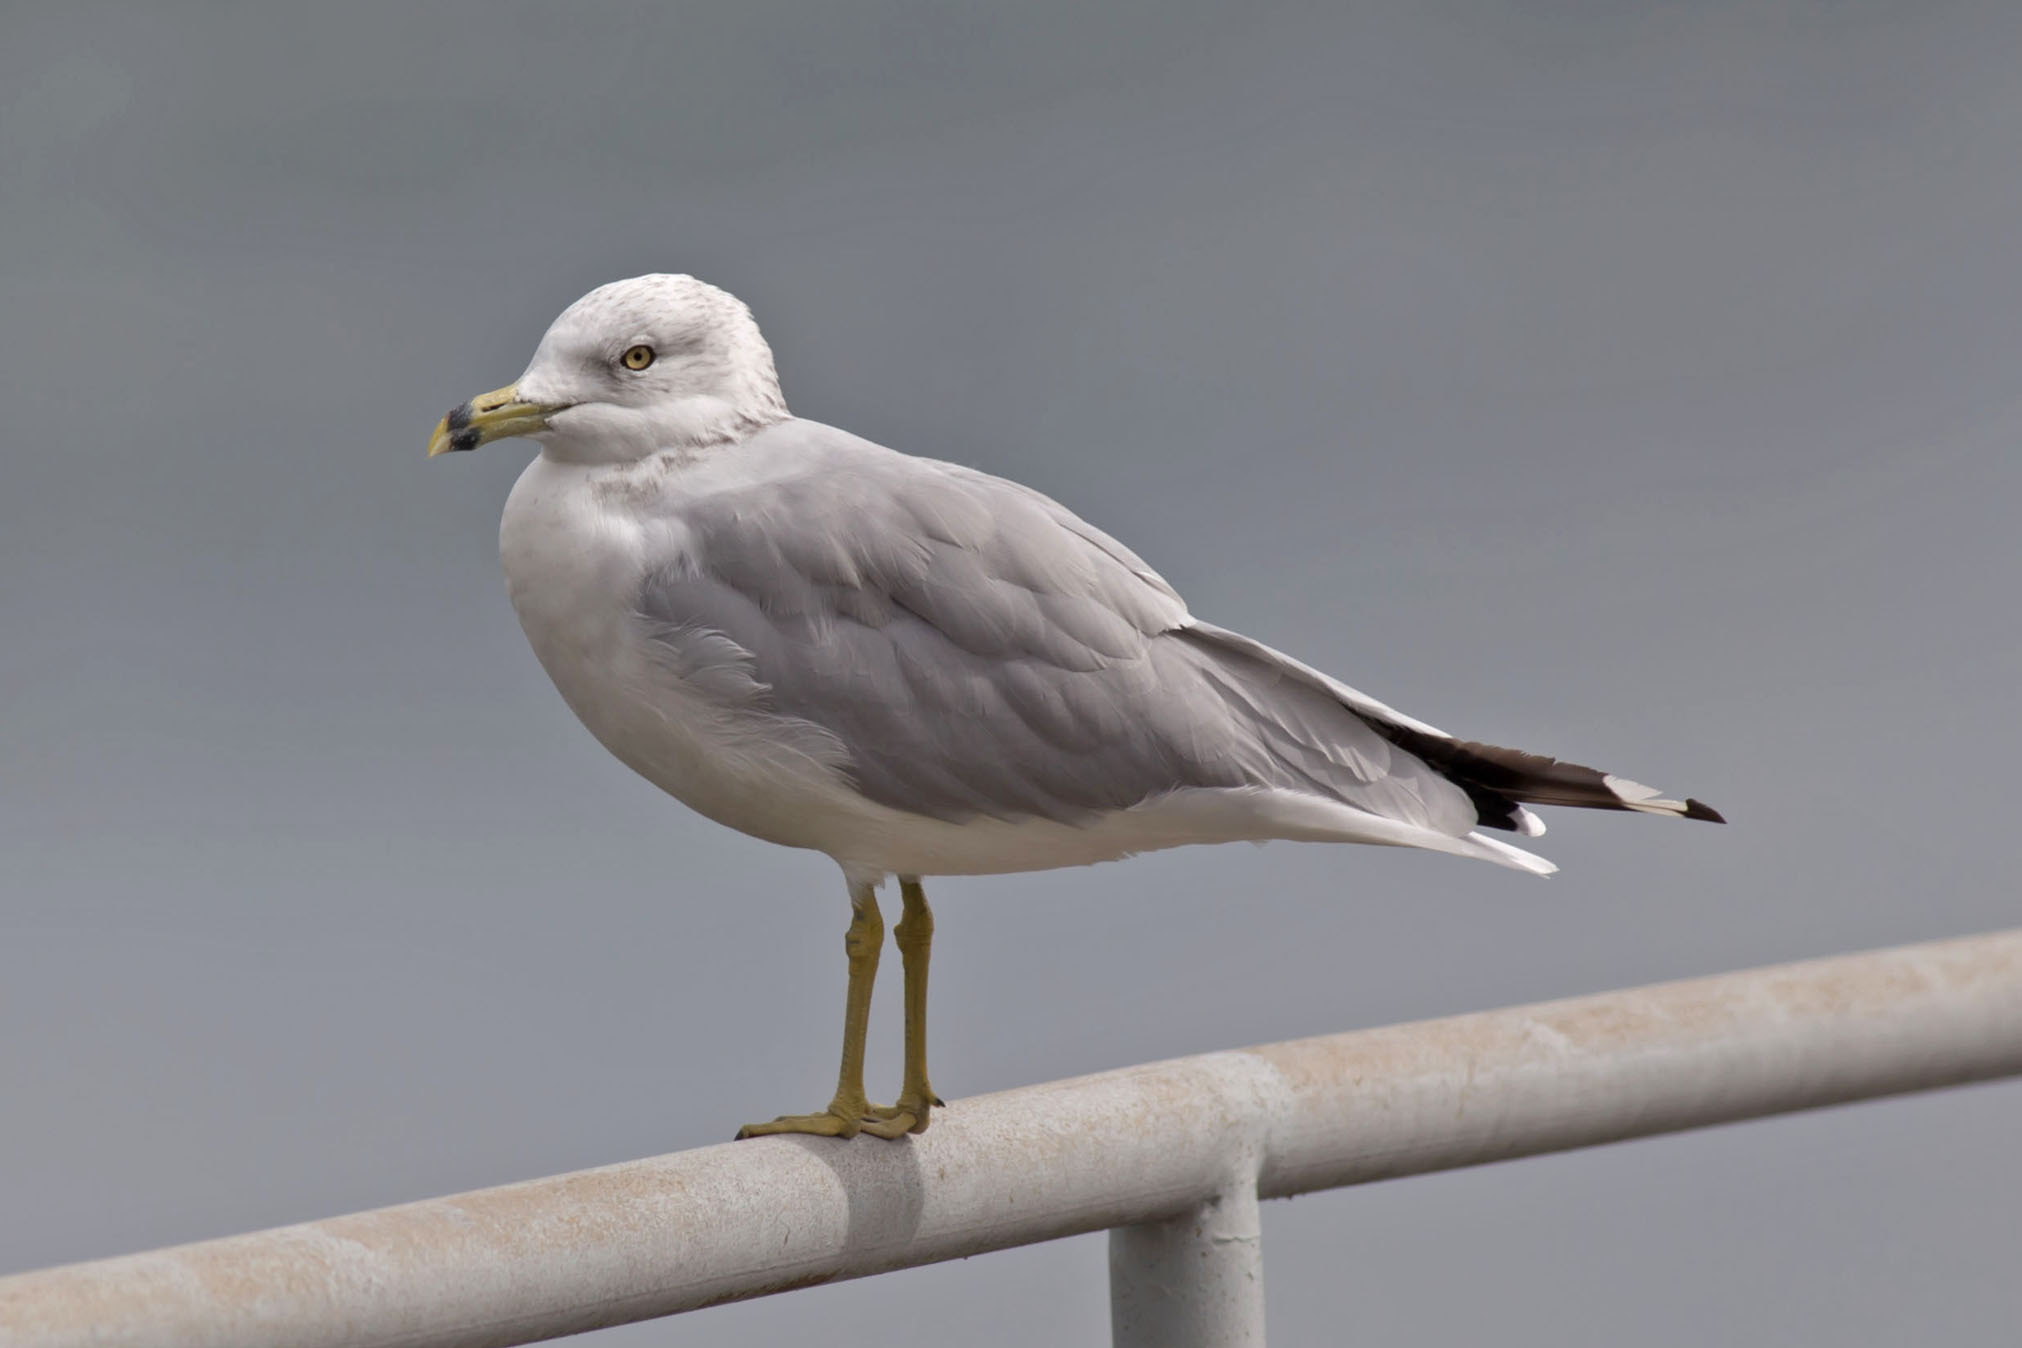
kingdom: Animalia
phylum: Chordata
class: Aves
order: Charadriiformes
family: Laridae
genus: Larus
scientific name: Larus delawarensis
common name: Ring-billed gull
